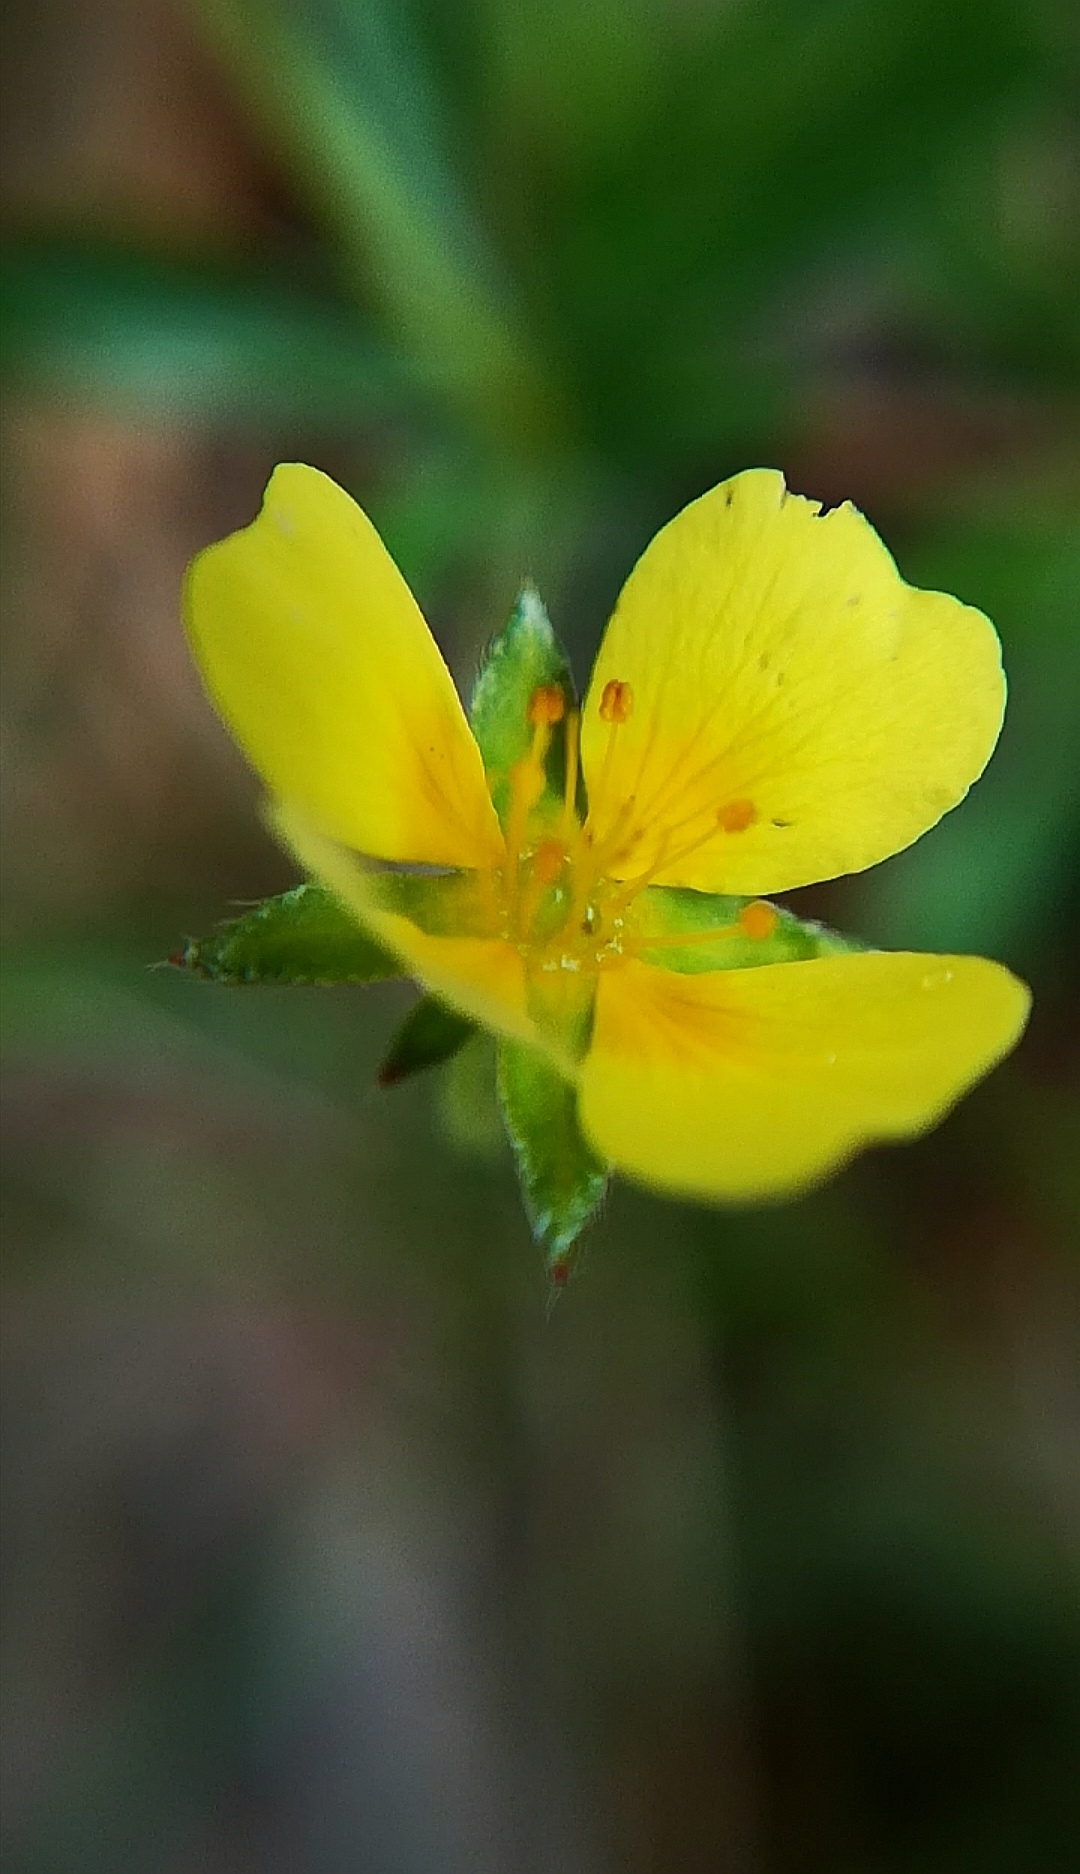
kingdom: Plantae
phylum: Tracheophyta
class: Magnoliopsida
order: Rosales
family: Rosaceae
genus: Potentilla
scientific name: Potentilla erecta
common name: Tormentil
